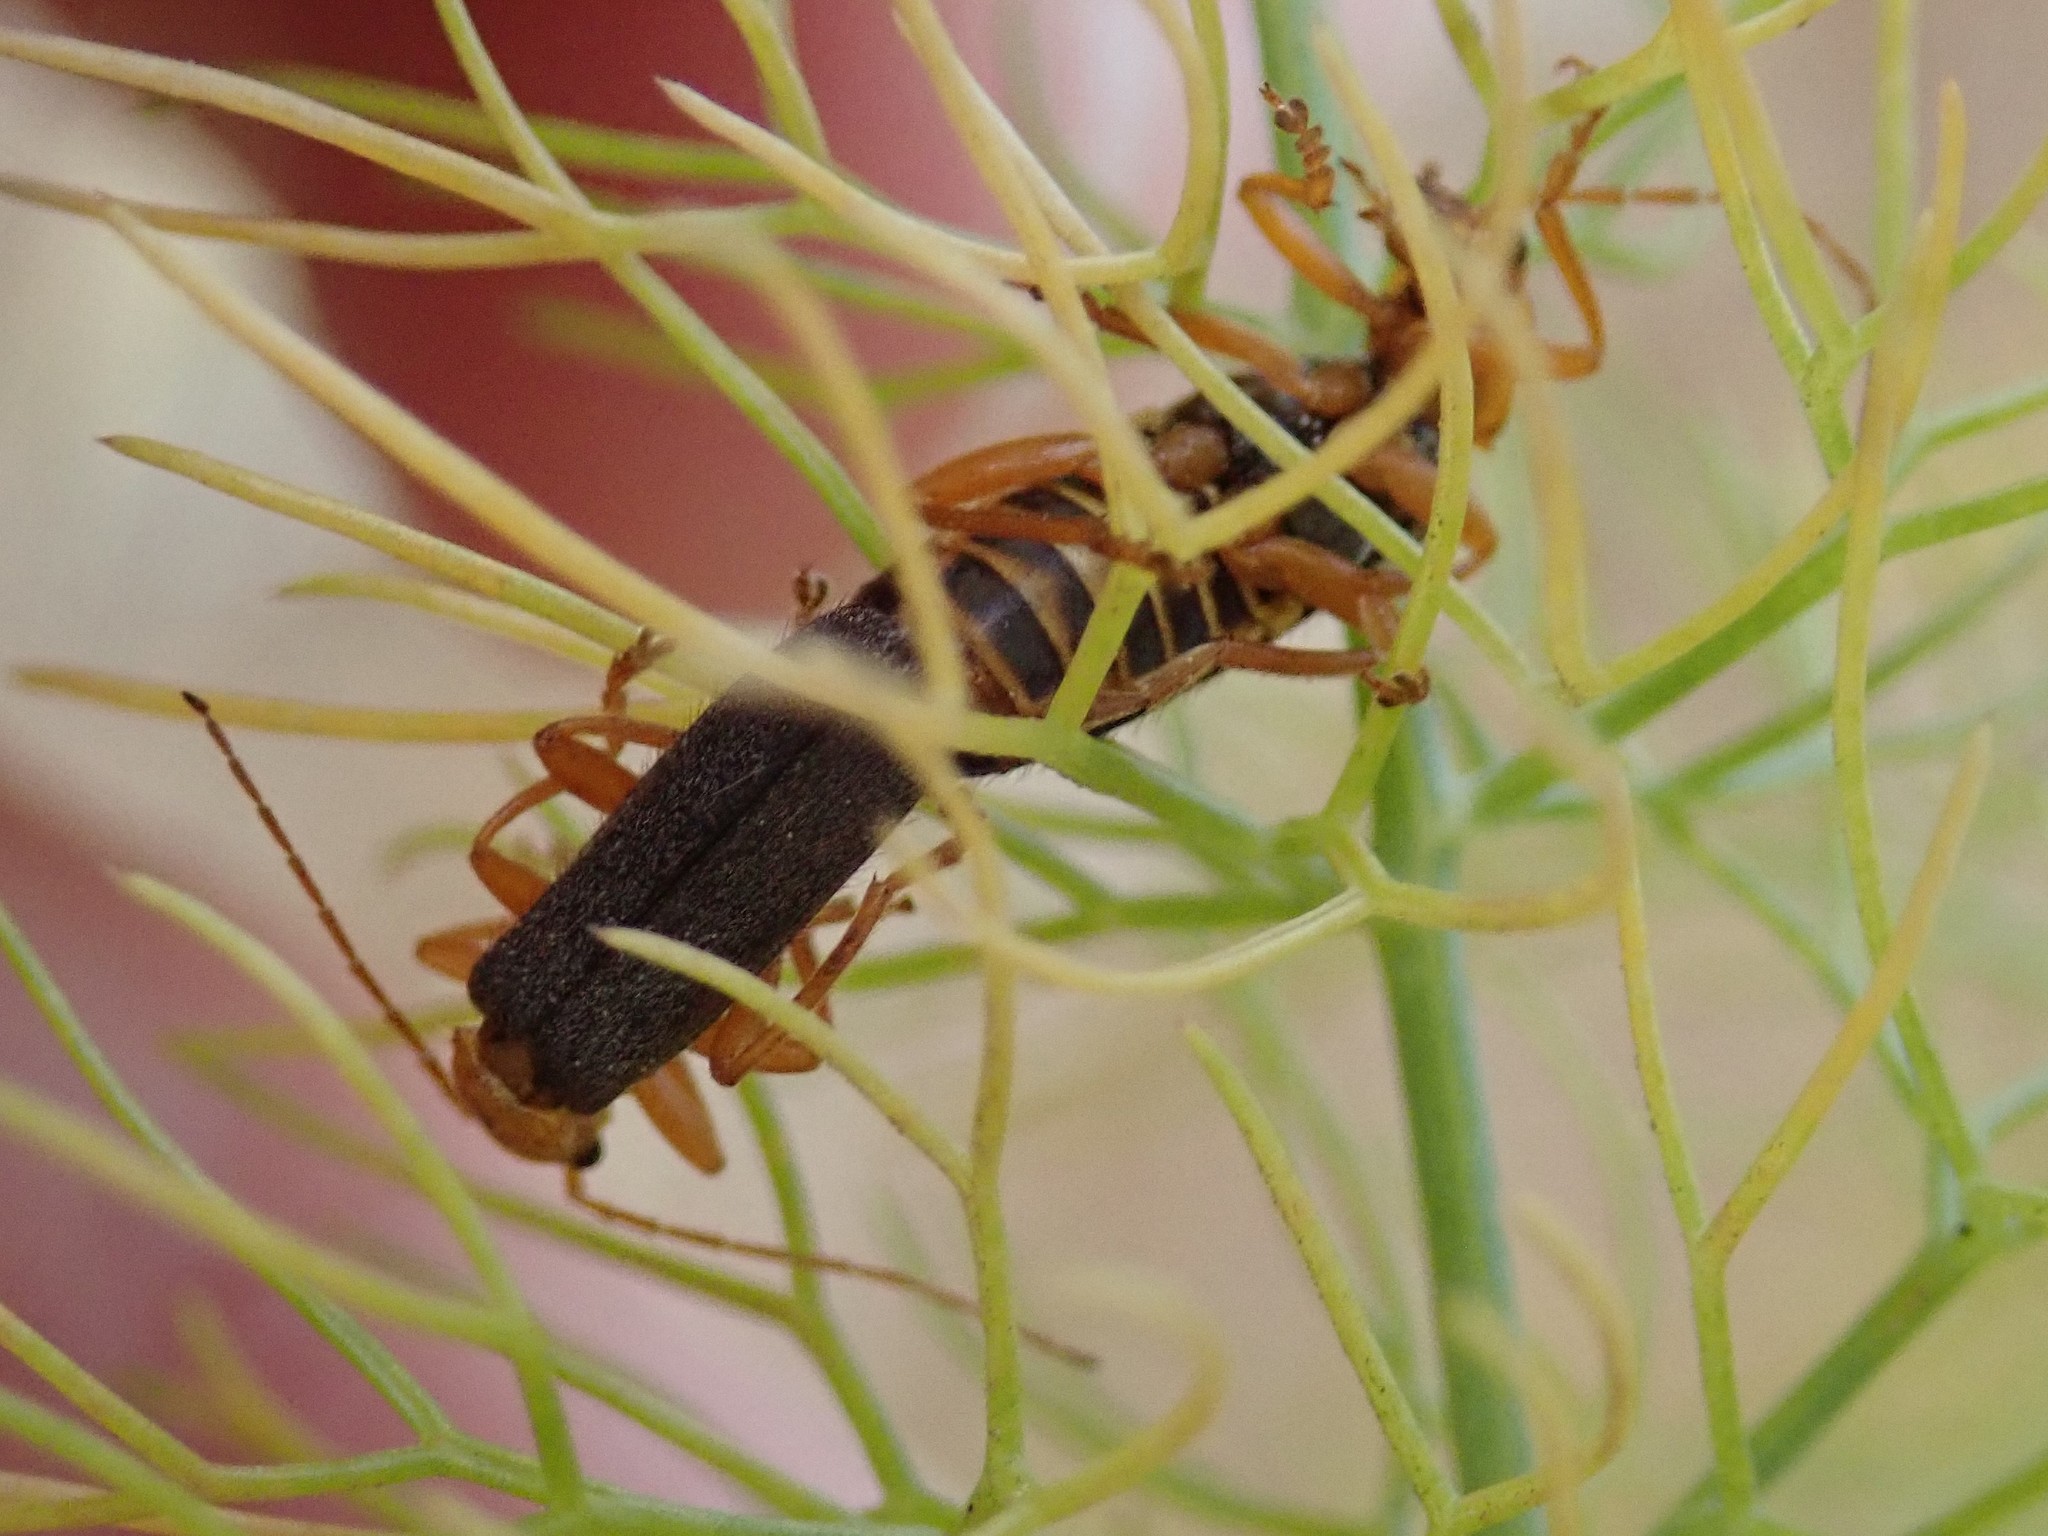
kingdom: Animalia
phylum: Arthropoda
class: Insecta
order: Coleoptera
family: Cantharidae
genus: Cultellunguis
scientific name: Cultellunguis americanus
